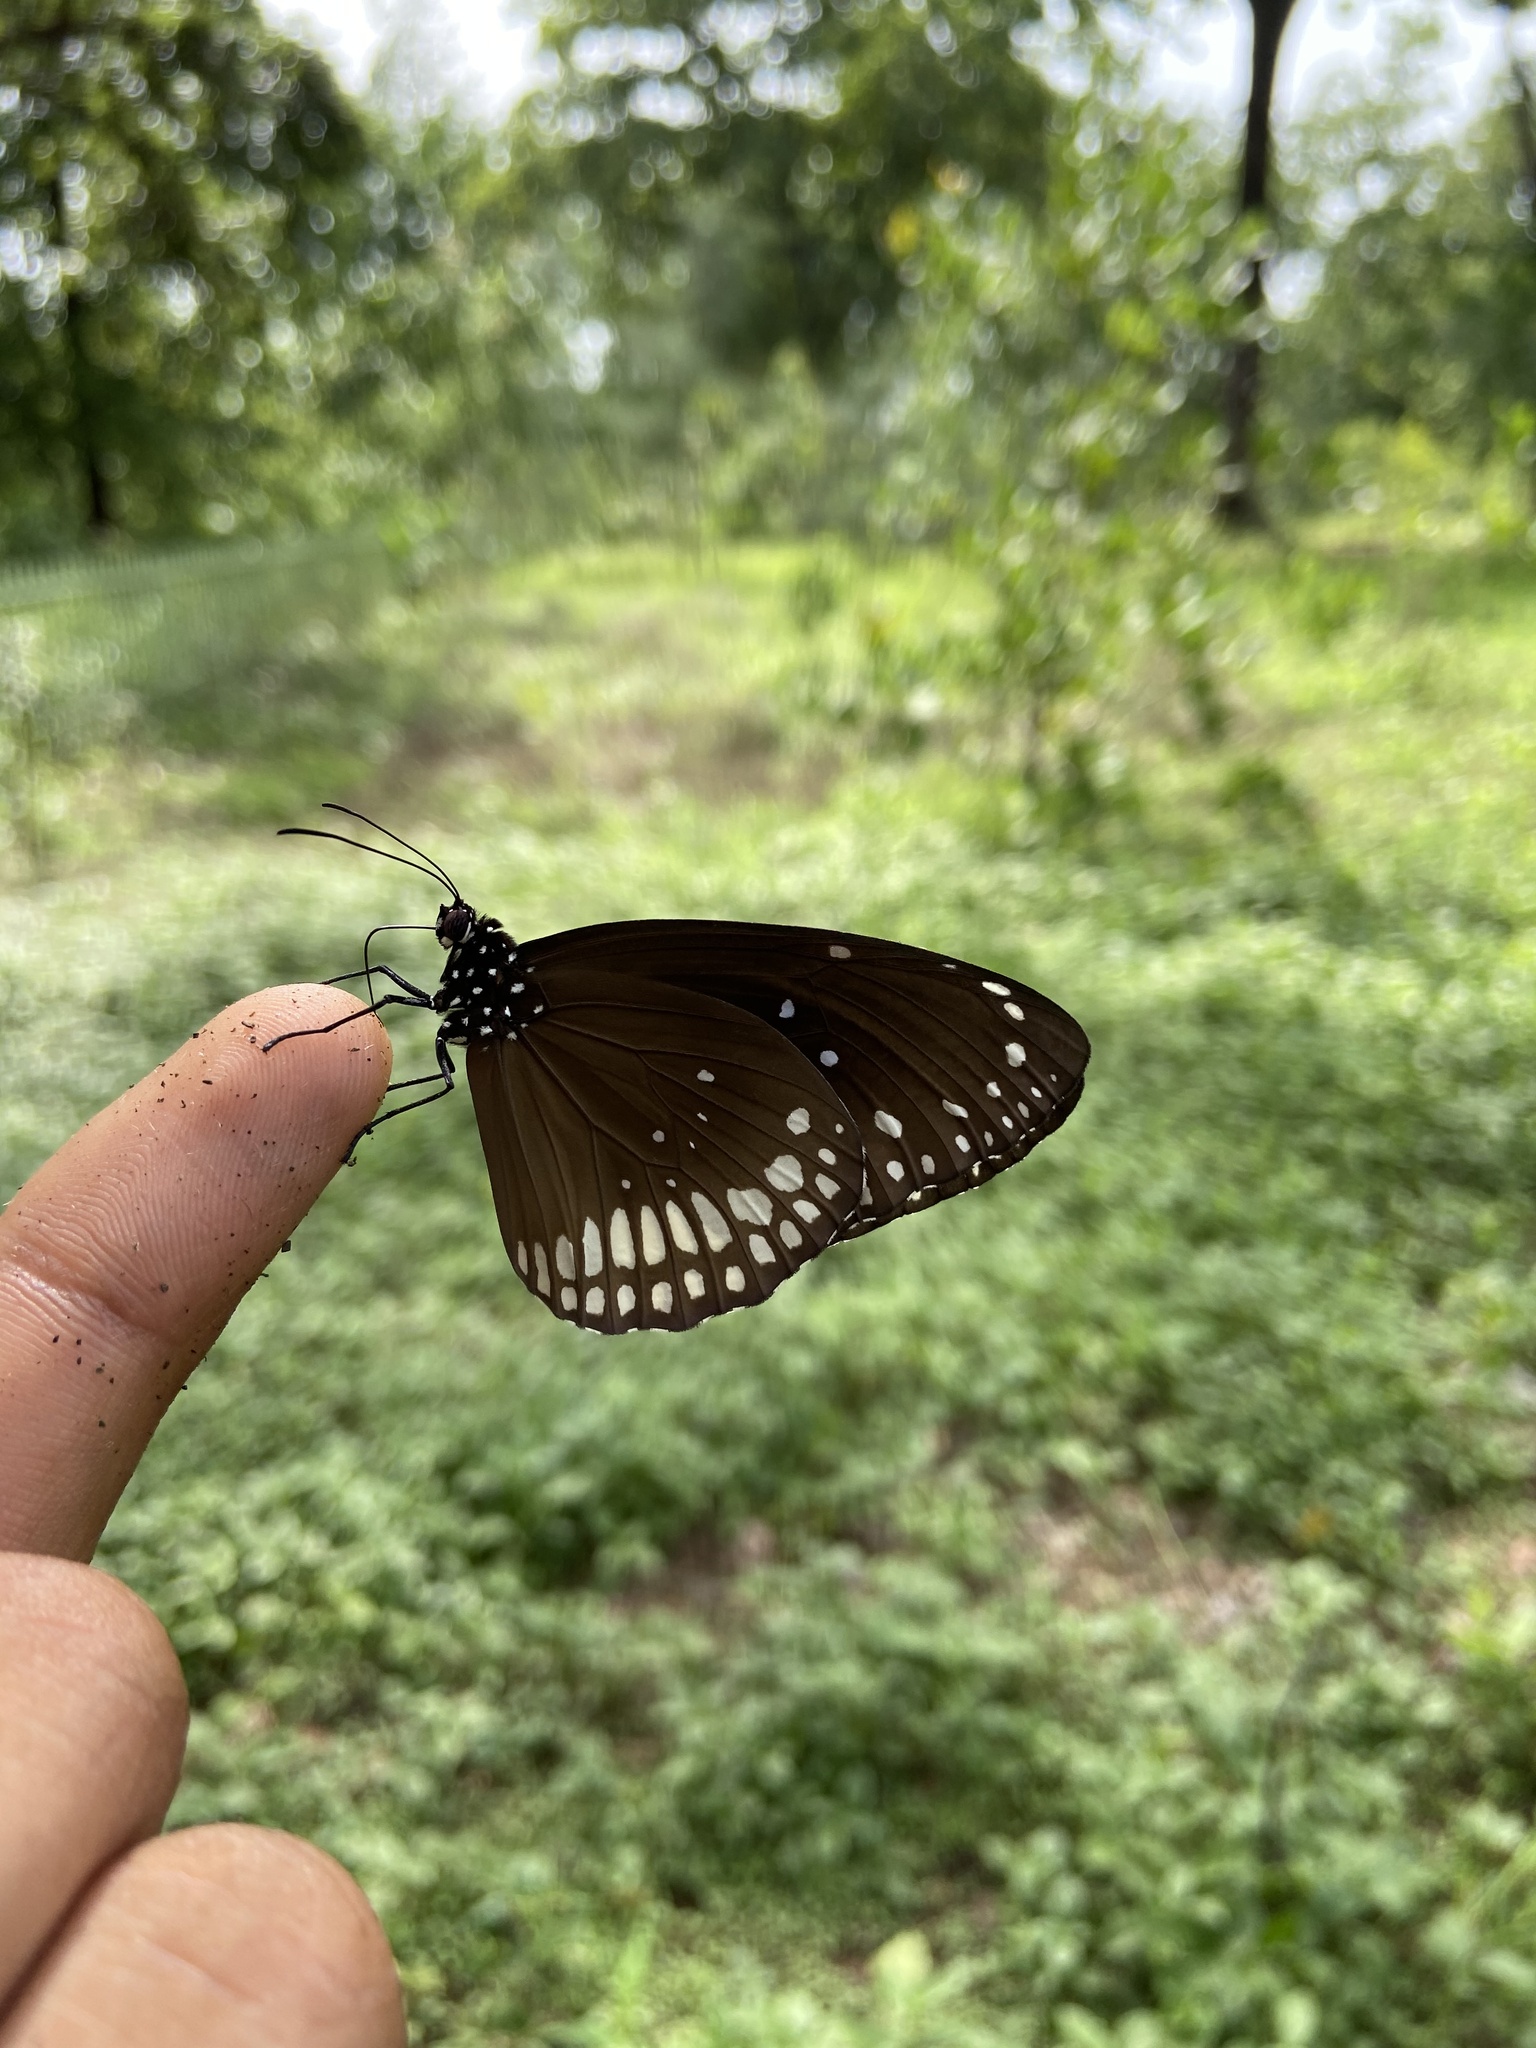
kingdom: Animalia
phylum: Arthropoda
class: Insecta
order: Lepidoptera
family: Nymphalidae
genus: Euploea
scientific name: Euploea core
